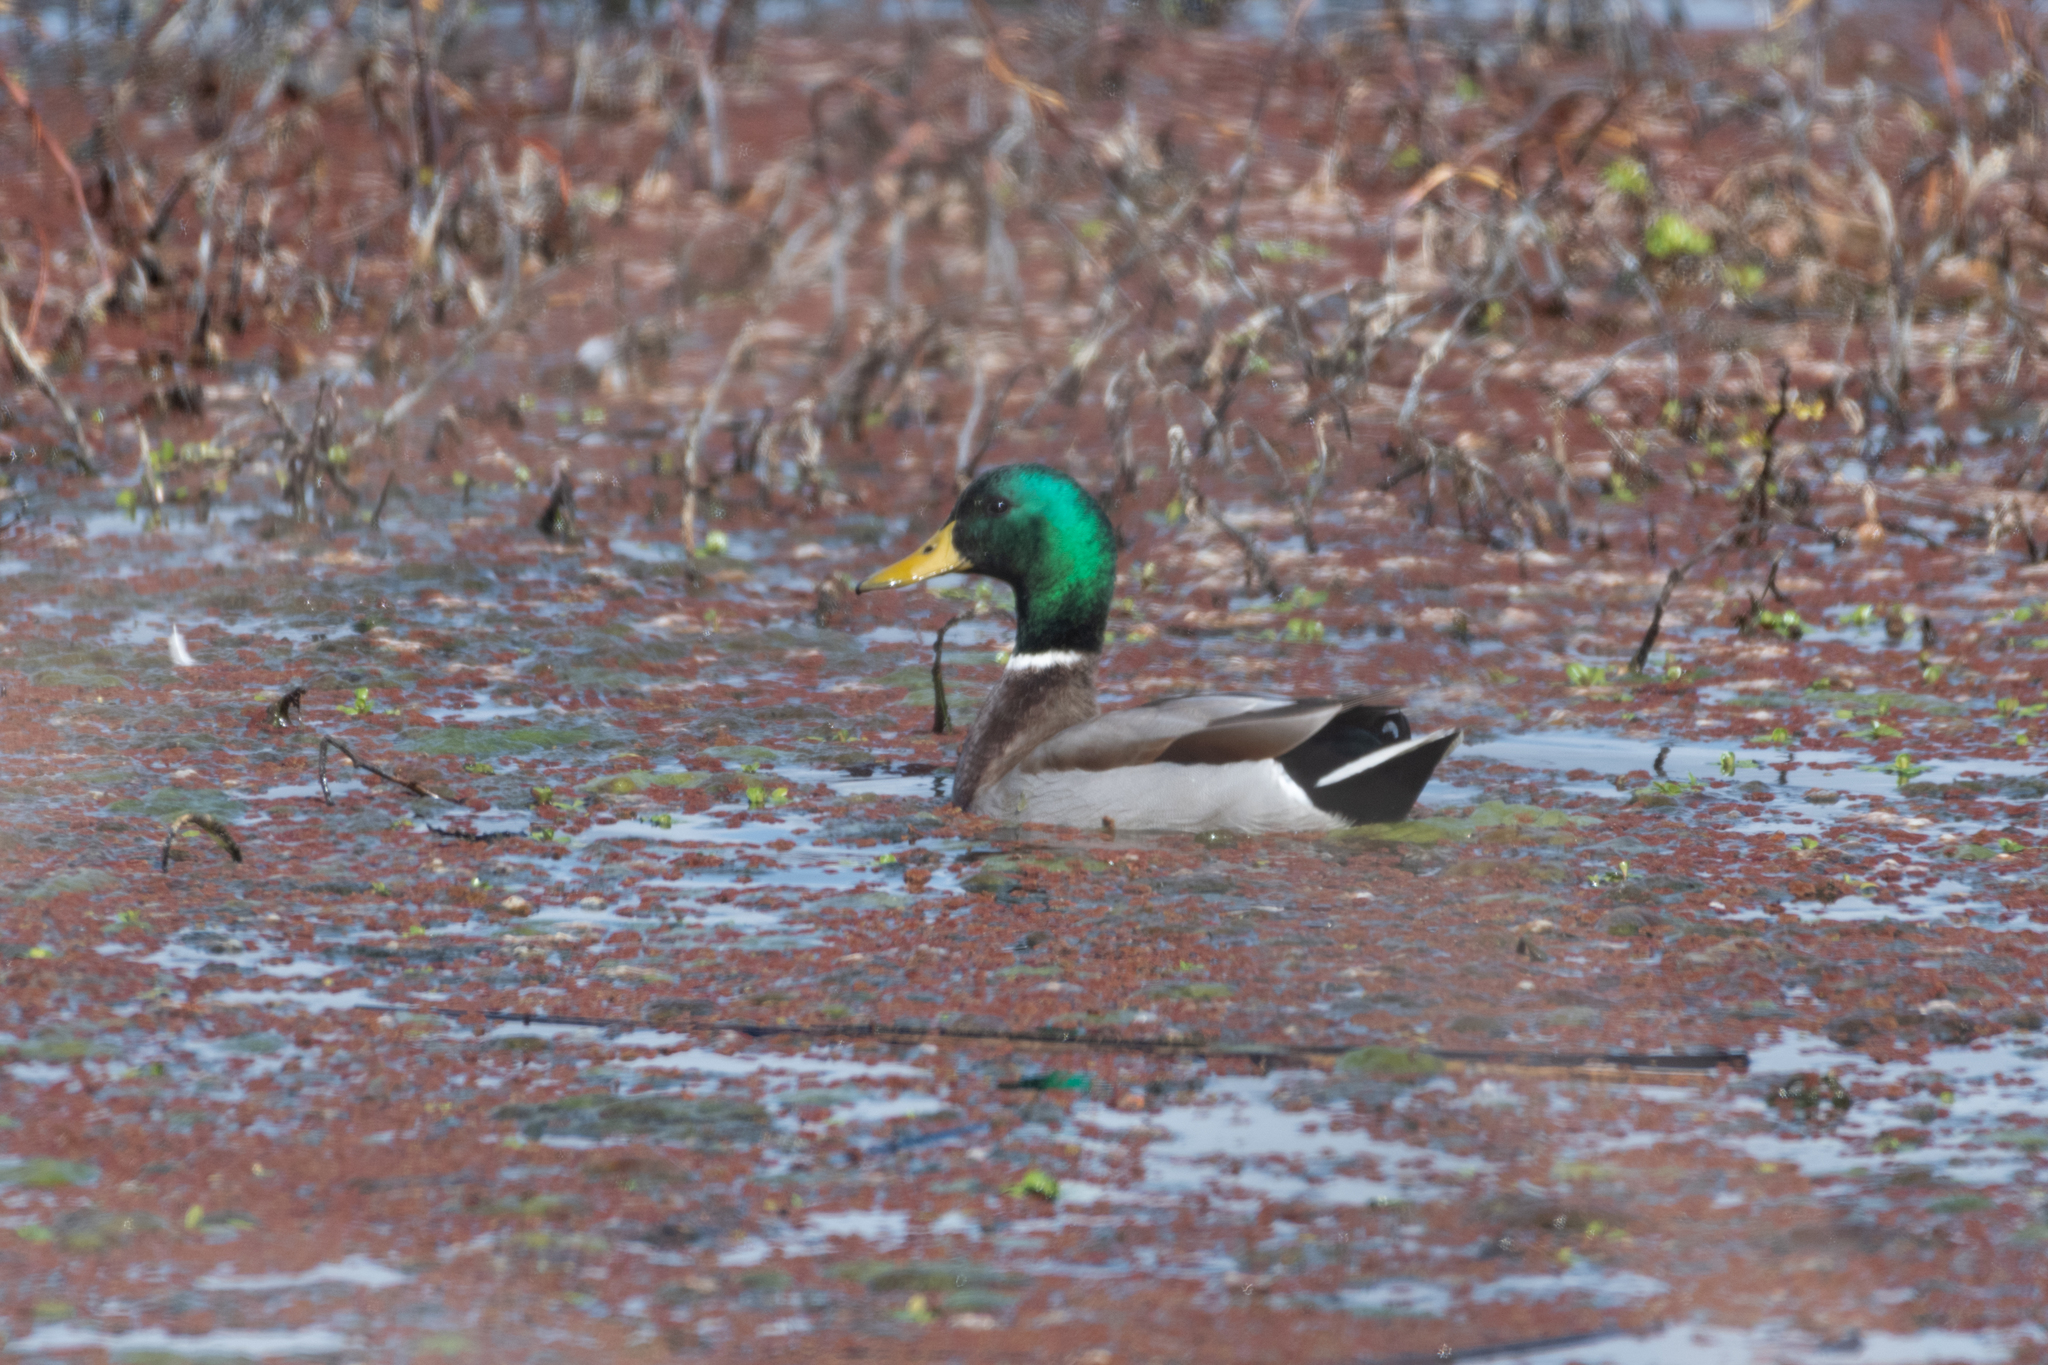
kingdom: Animalia
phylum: Chordata
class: Aves
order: Anseriformes
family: Anatidae
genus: Anas
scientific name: Anas platyrhynchos
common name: Mallard
